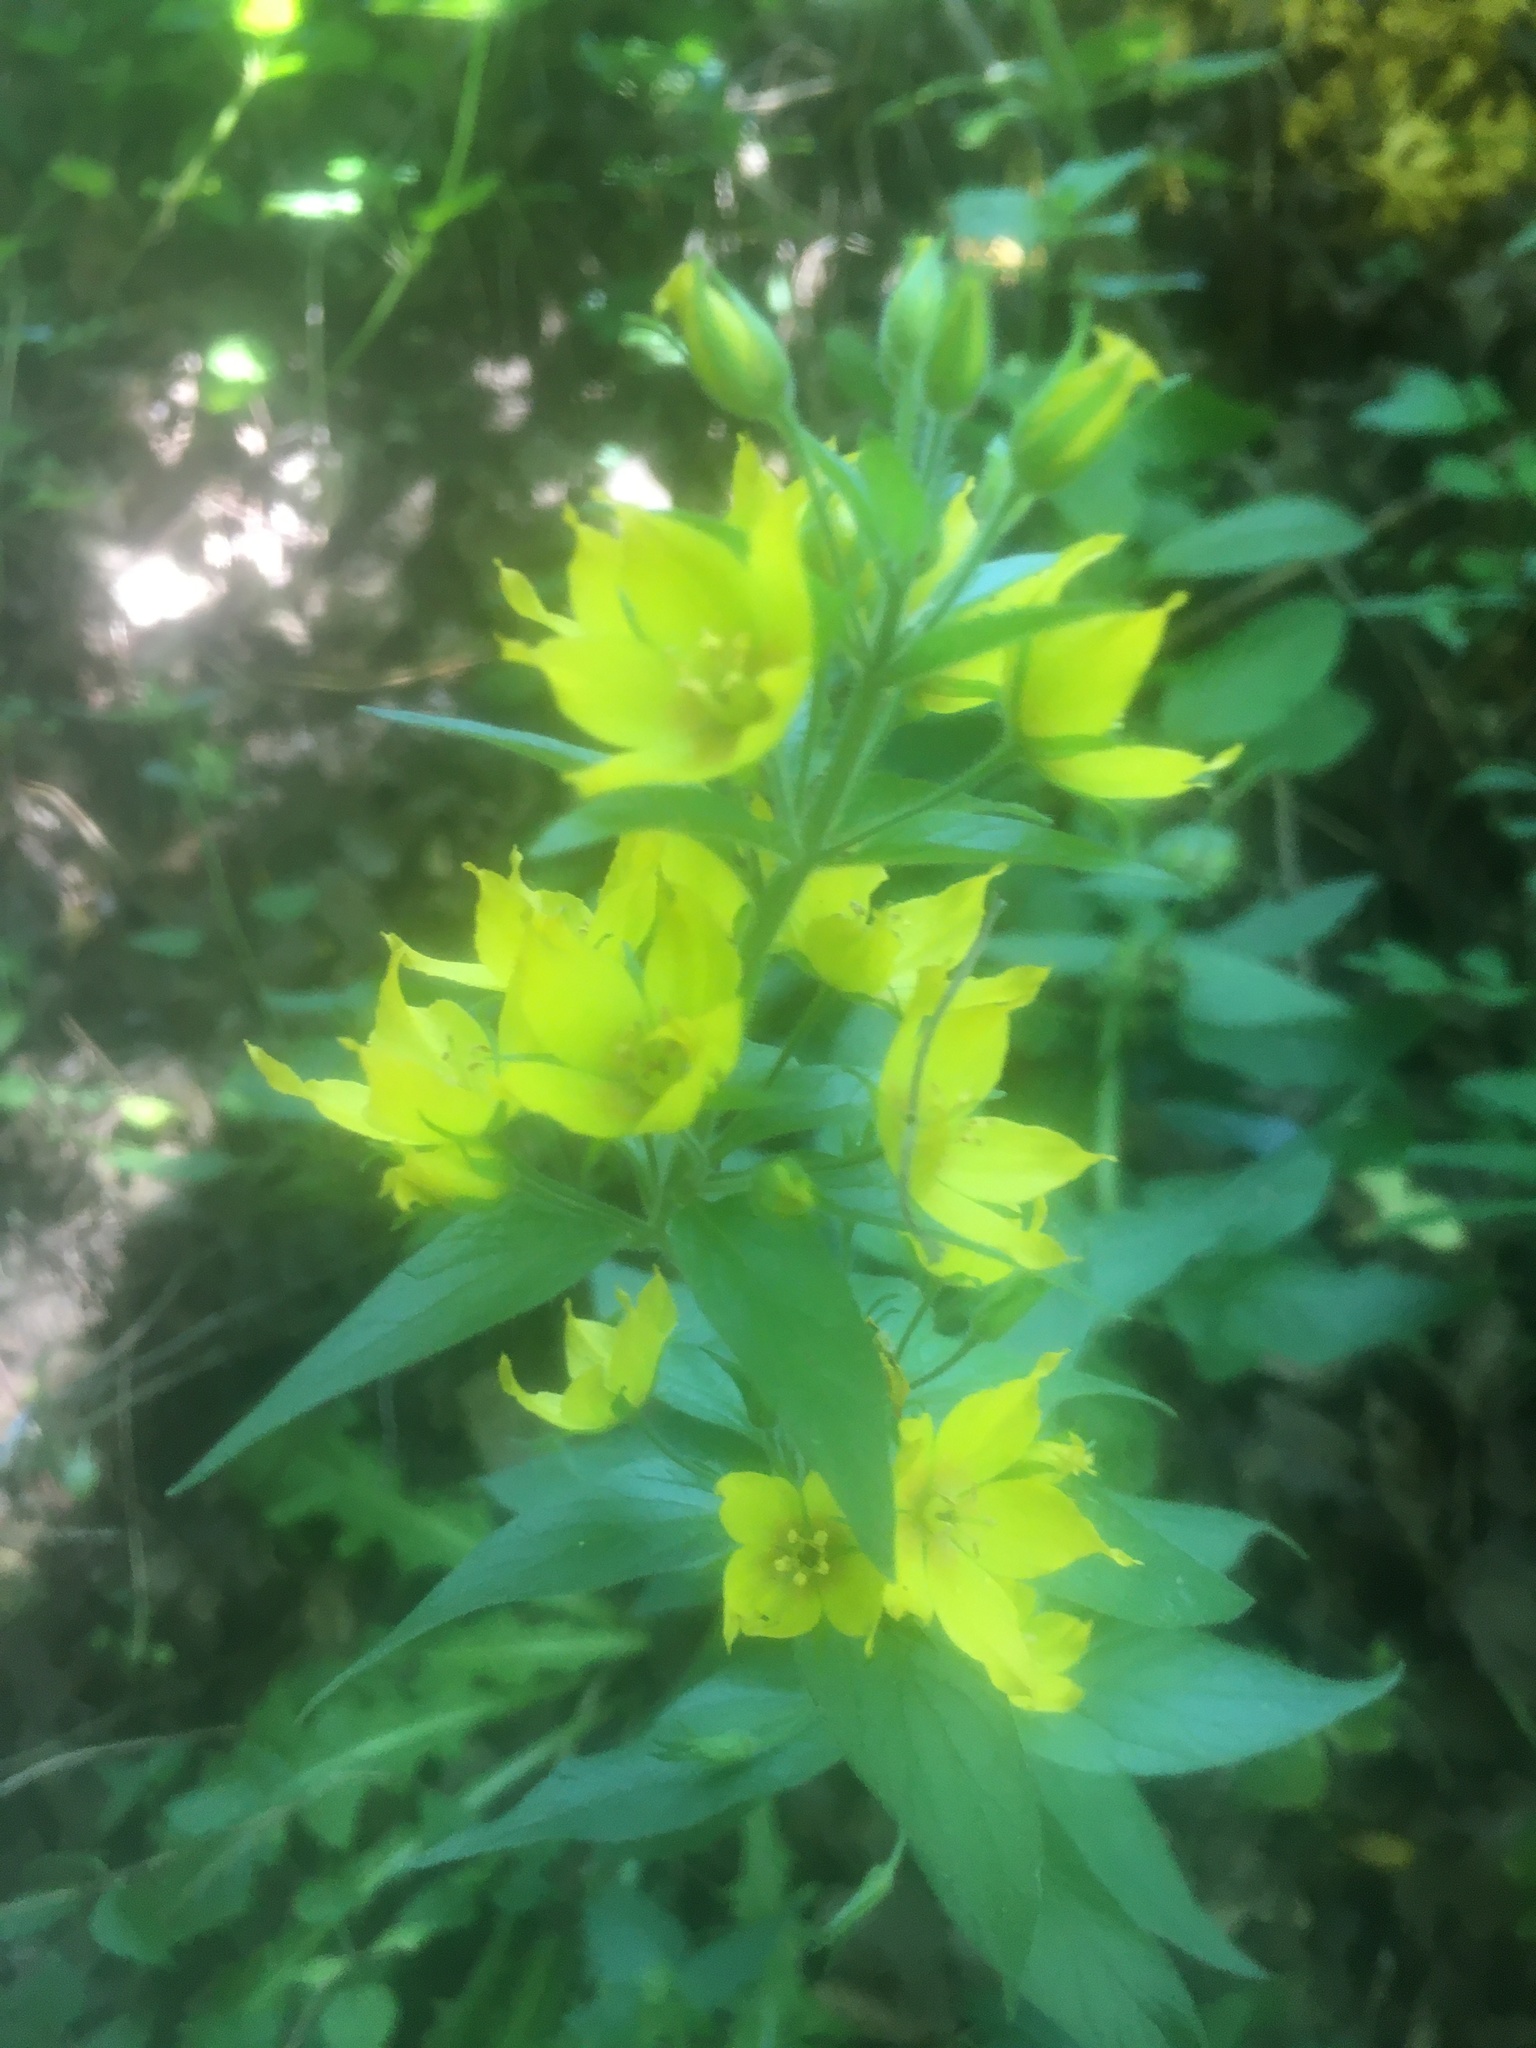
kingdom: Plantae
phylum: Tracheophyta
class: Magnoliopsida
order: Ericales
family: Primulaceae
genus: Lysimachia
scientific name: Lysimachia punctata
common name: Dotted loosestrife
